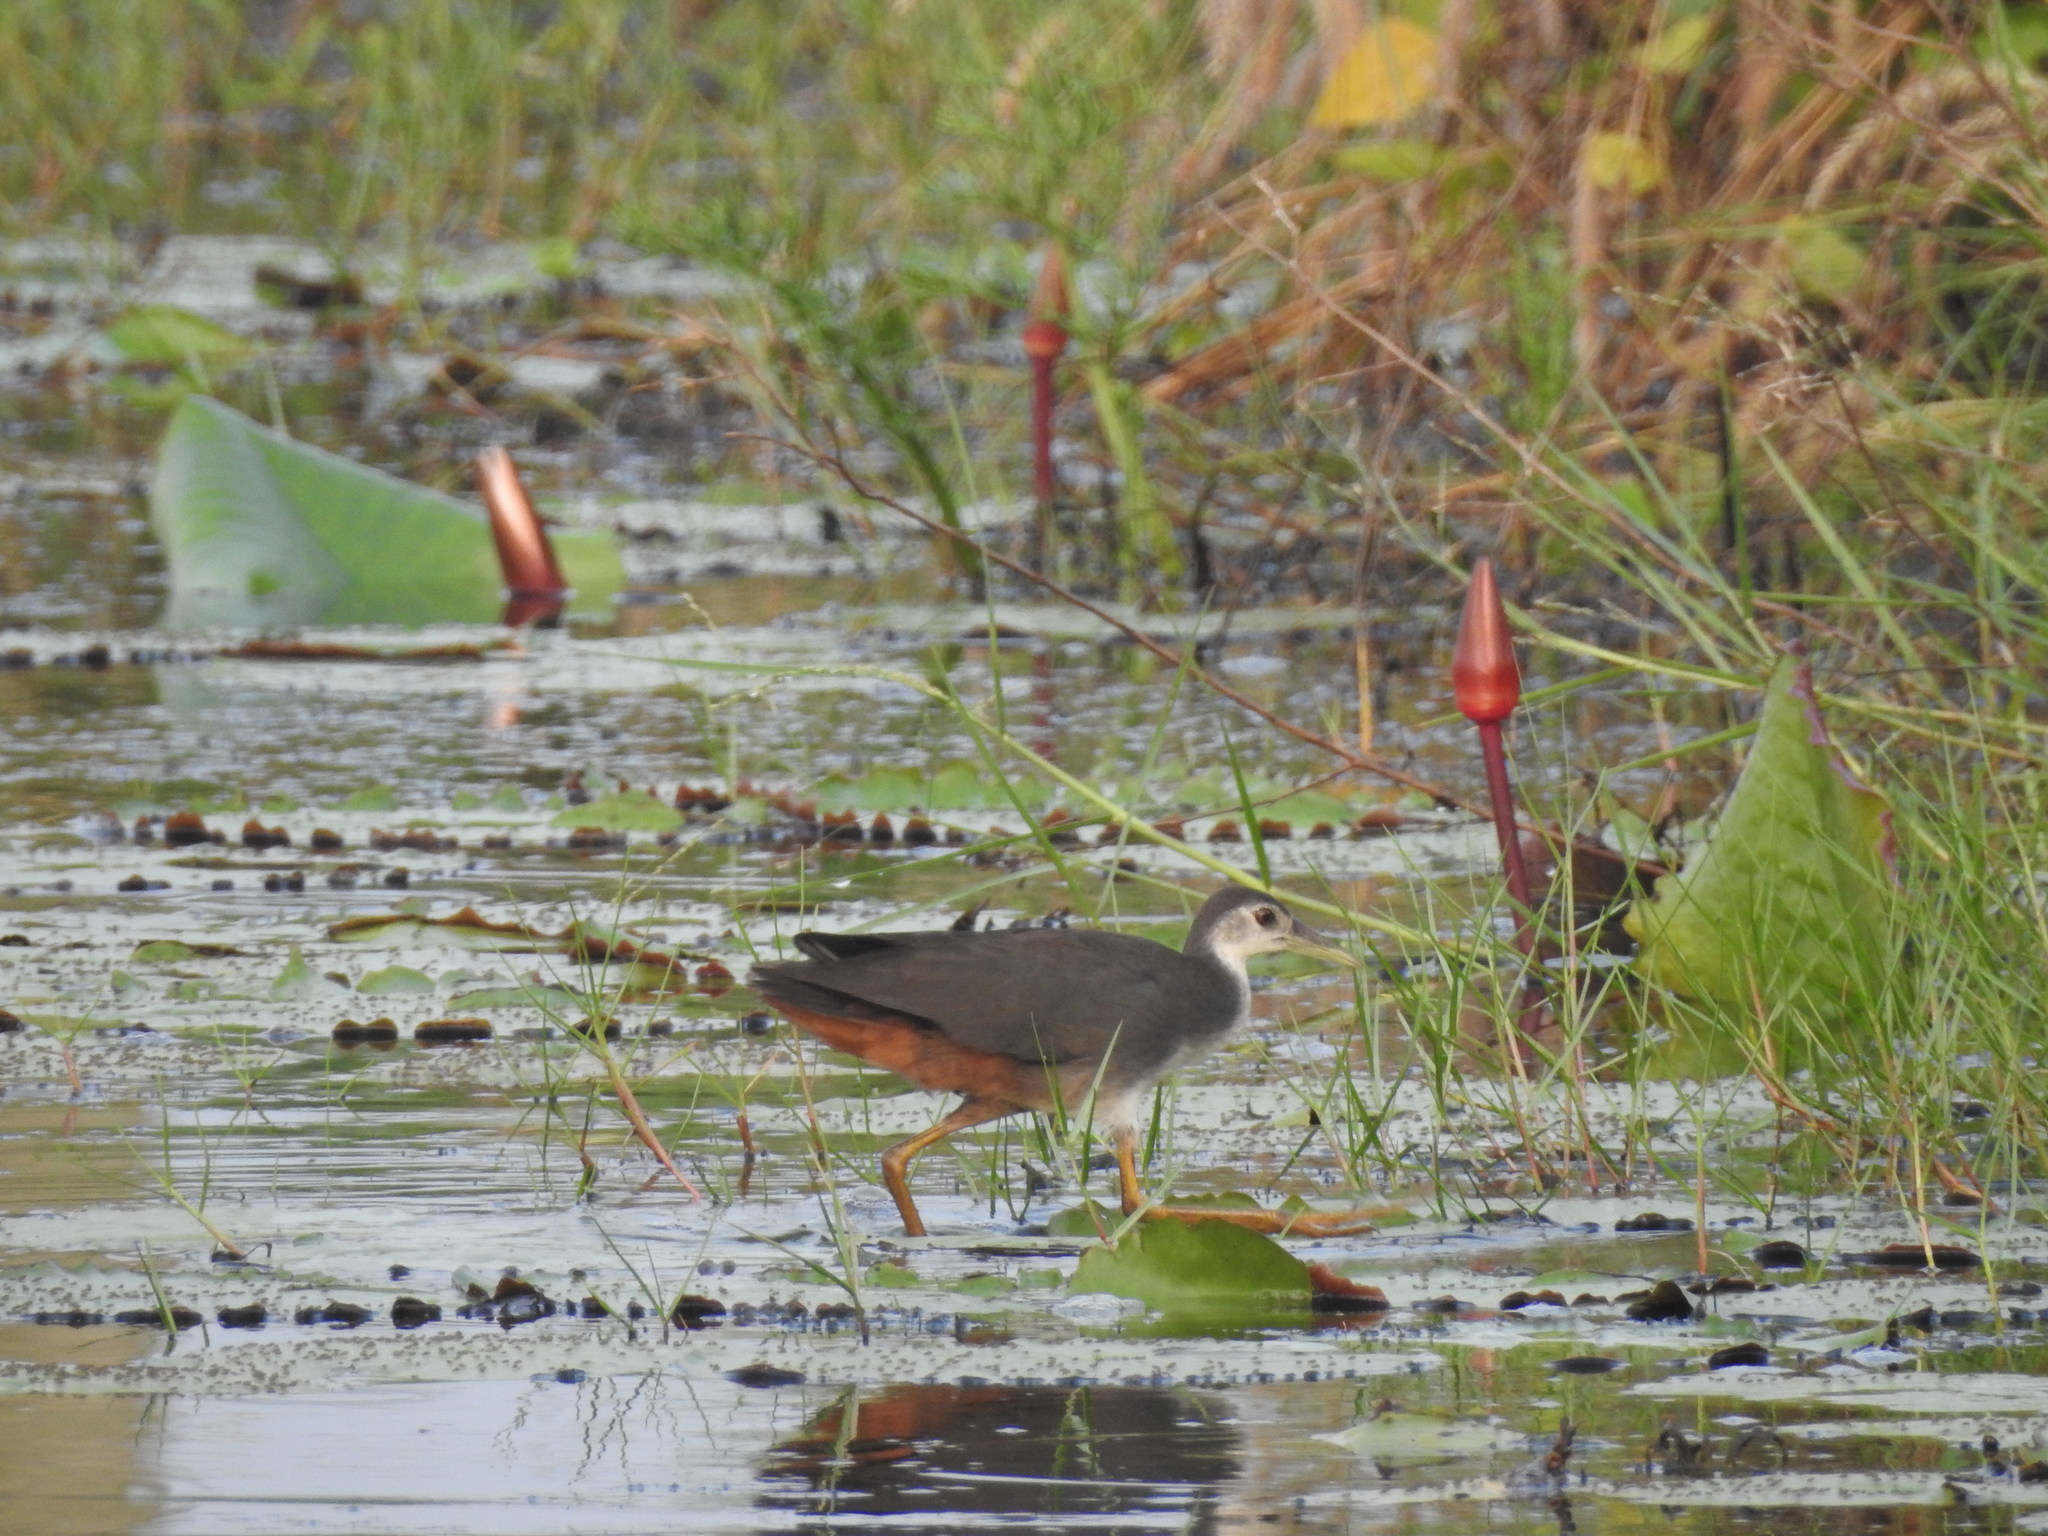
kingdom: Animalia
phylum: Chordata
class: Aves
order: Gruiformes
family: Rallidae
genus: Amaurornis
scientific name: Amaurornis phoenicurus
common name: White-breasted waterhen
